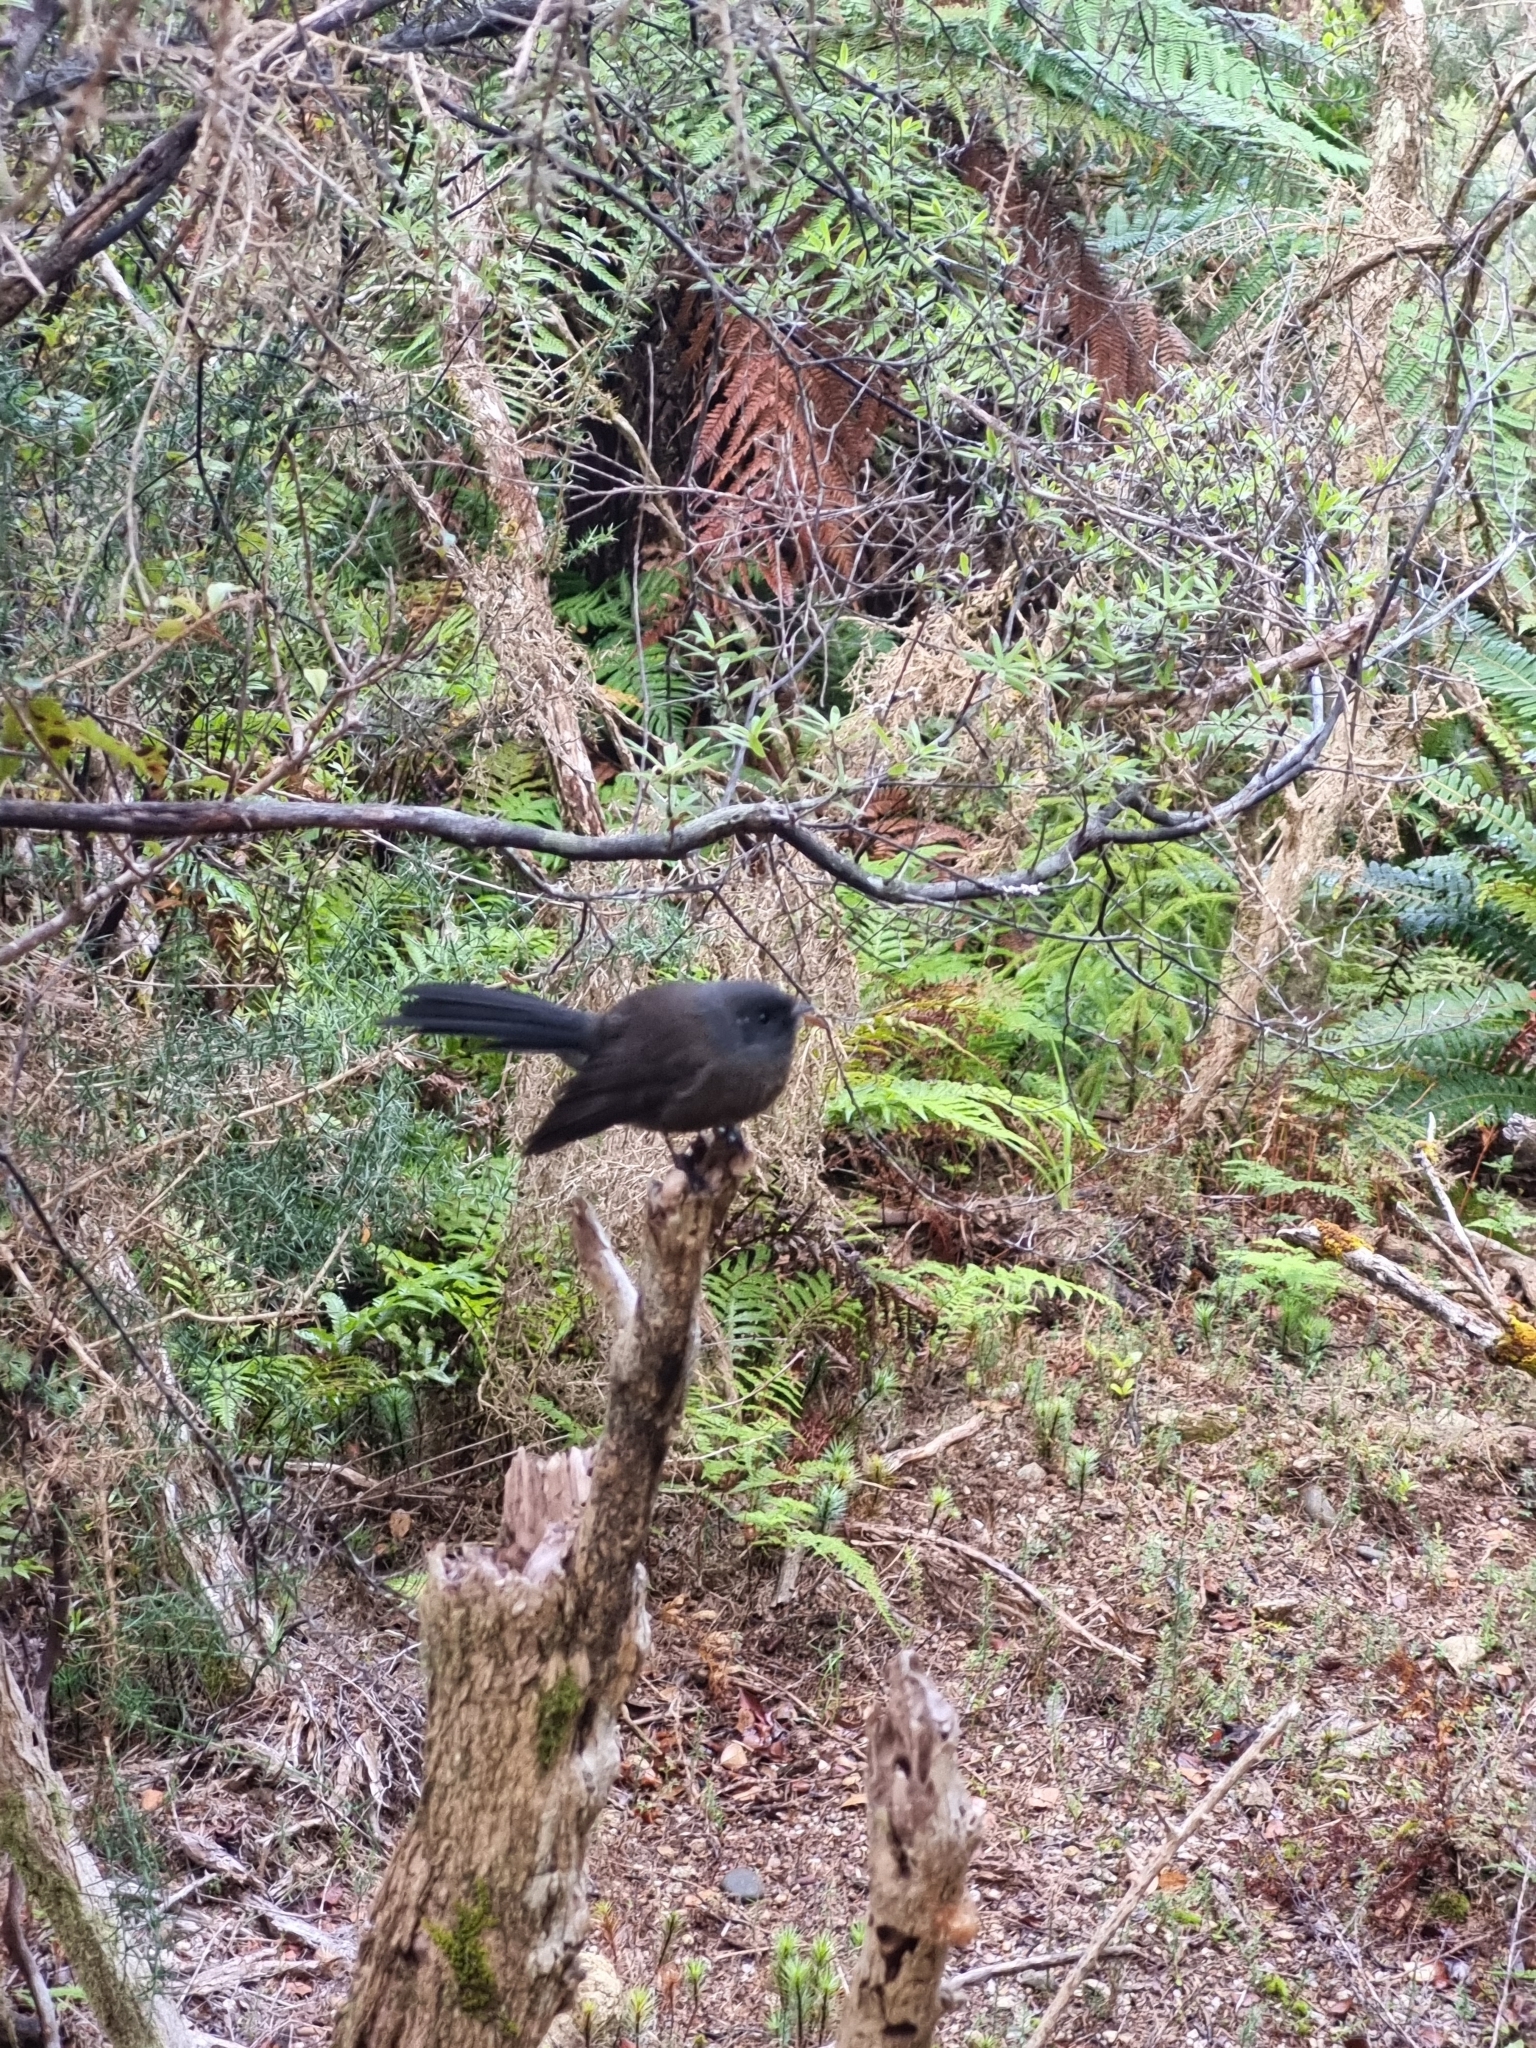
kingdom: Animalia
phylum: Chordata
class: Aves
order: Passeriformes
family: Rhipiduridae
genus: Rhipidura
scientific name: Rhipidura fuliginosa
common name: New zealand fantail
